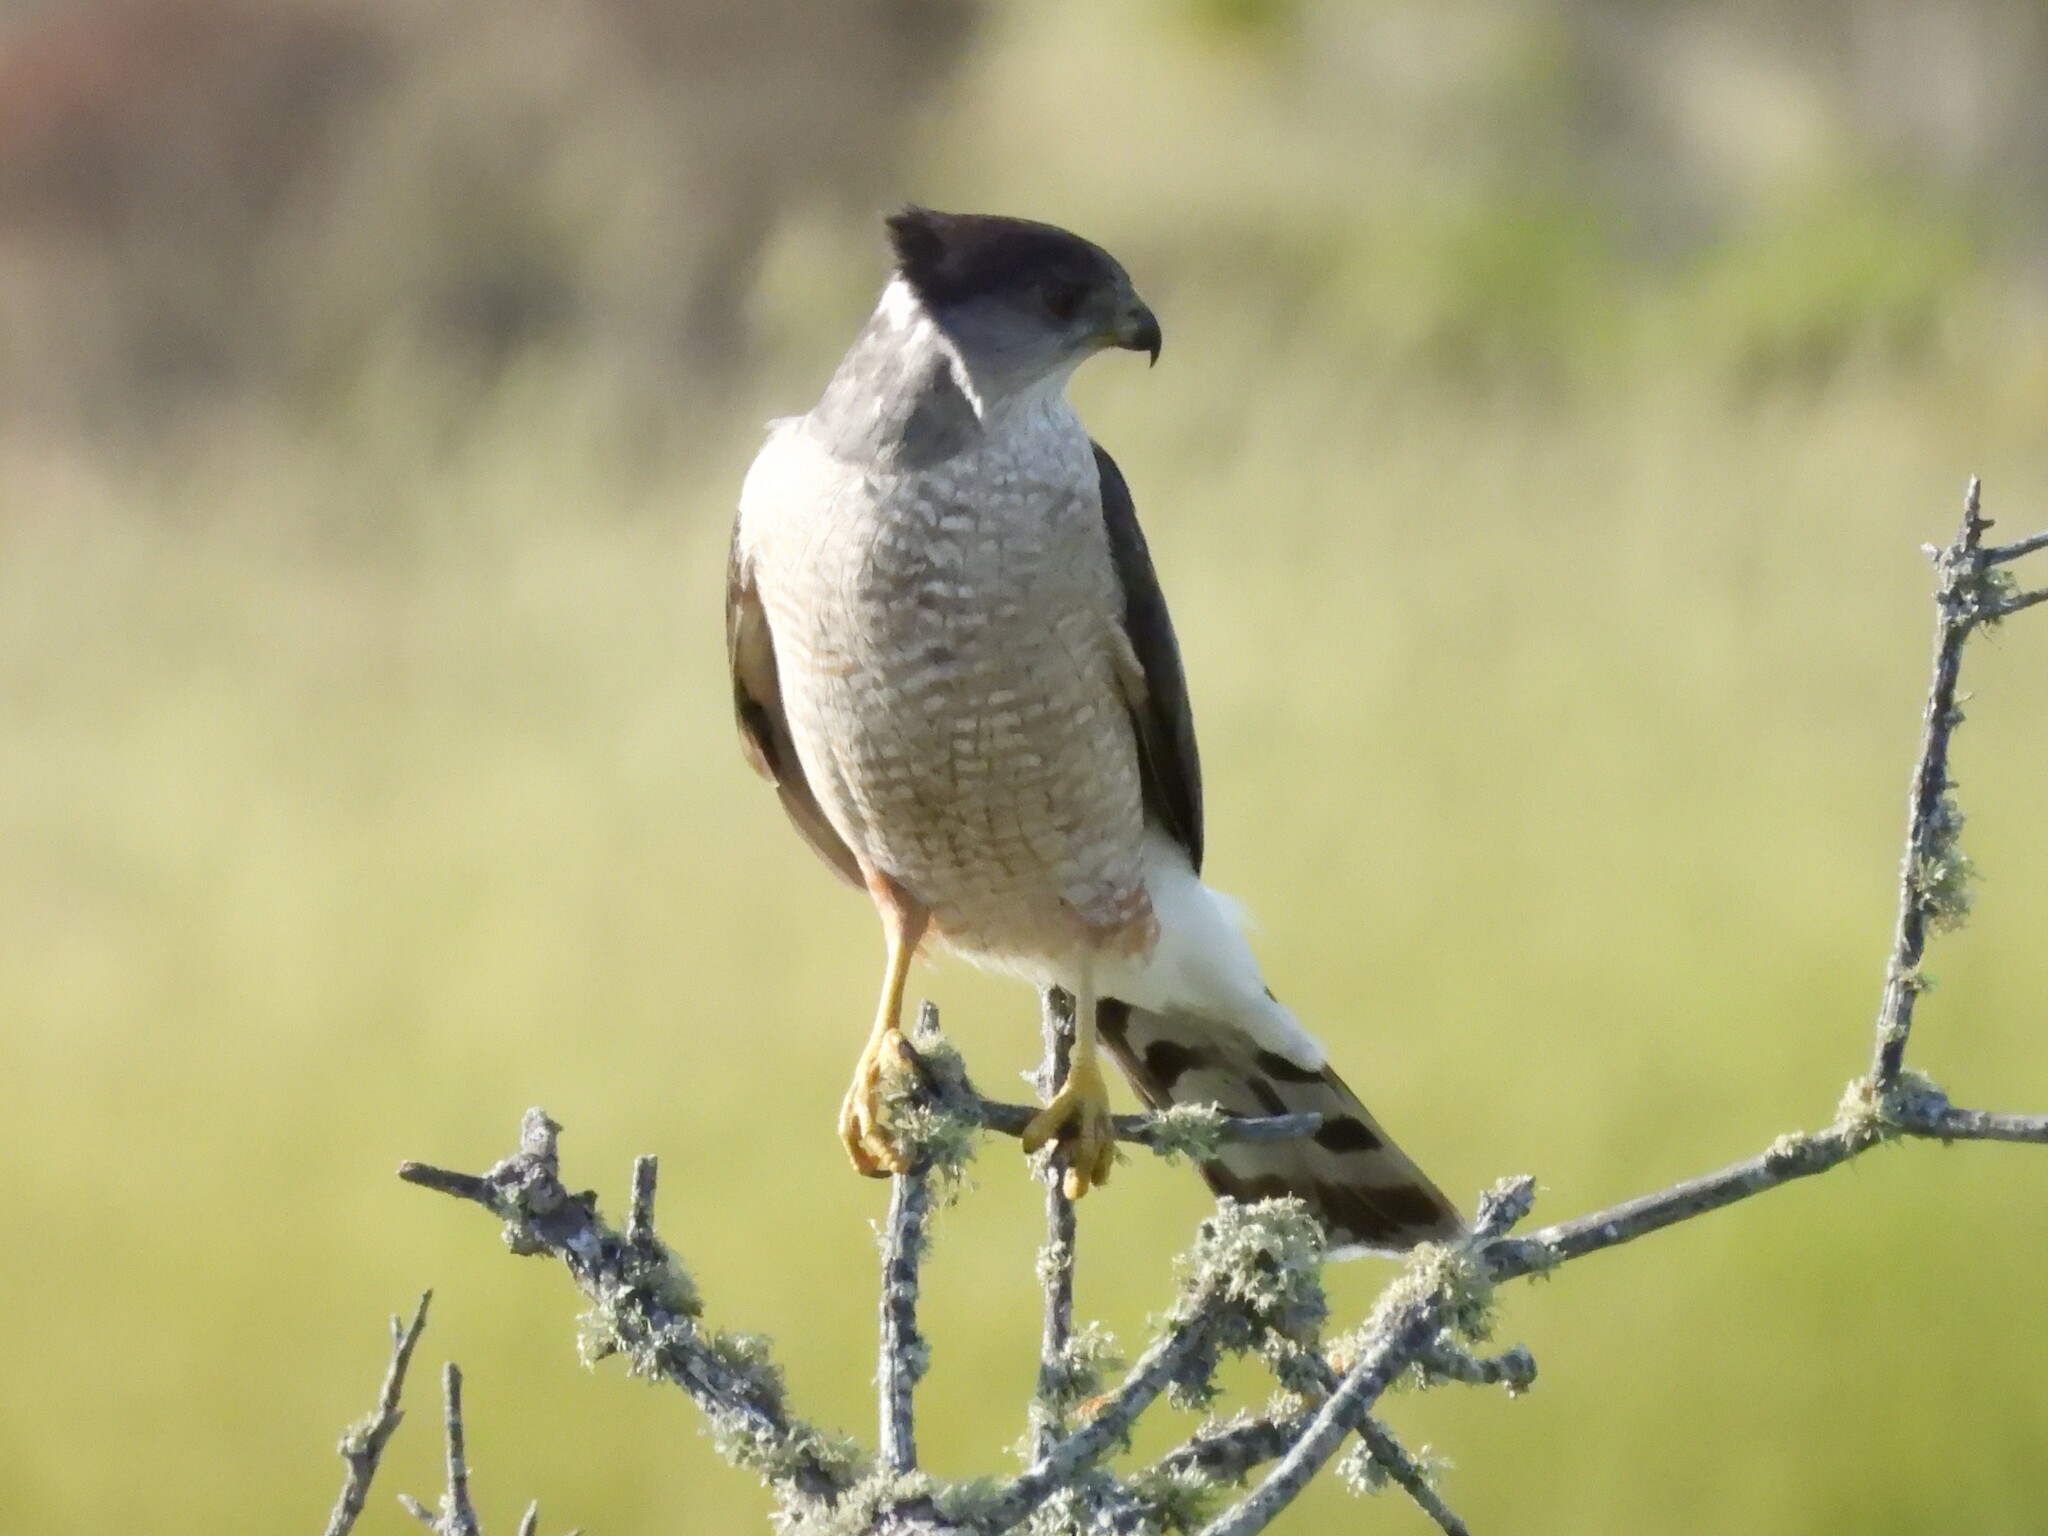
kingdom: Animalia
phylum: Chordata
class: Aves
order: Accipitriformes
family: Accipitridae
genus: Accipiter
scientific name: Accipiter cooperii
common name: Cooper's hawk
